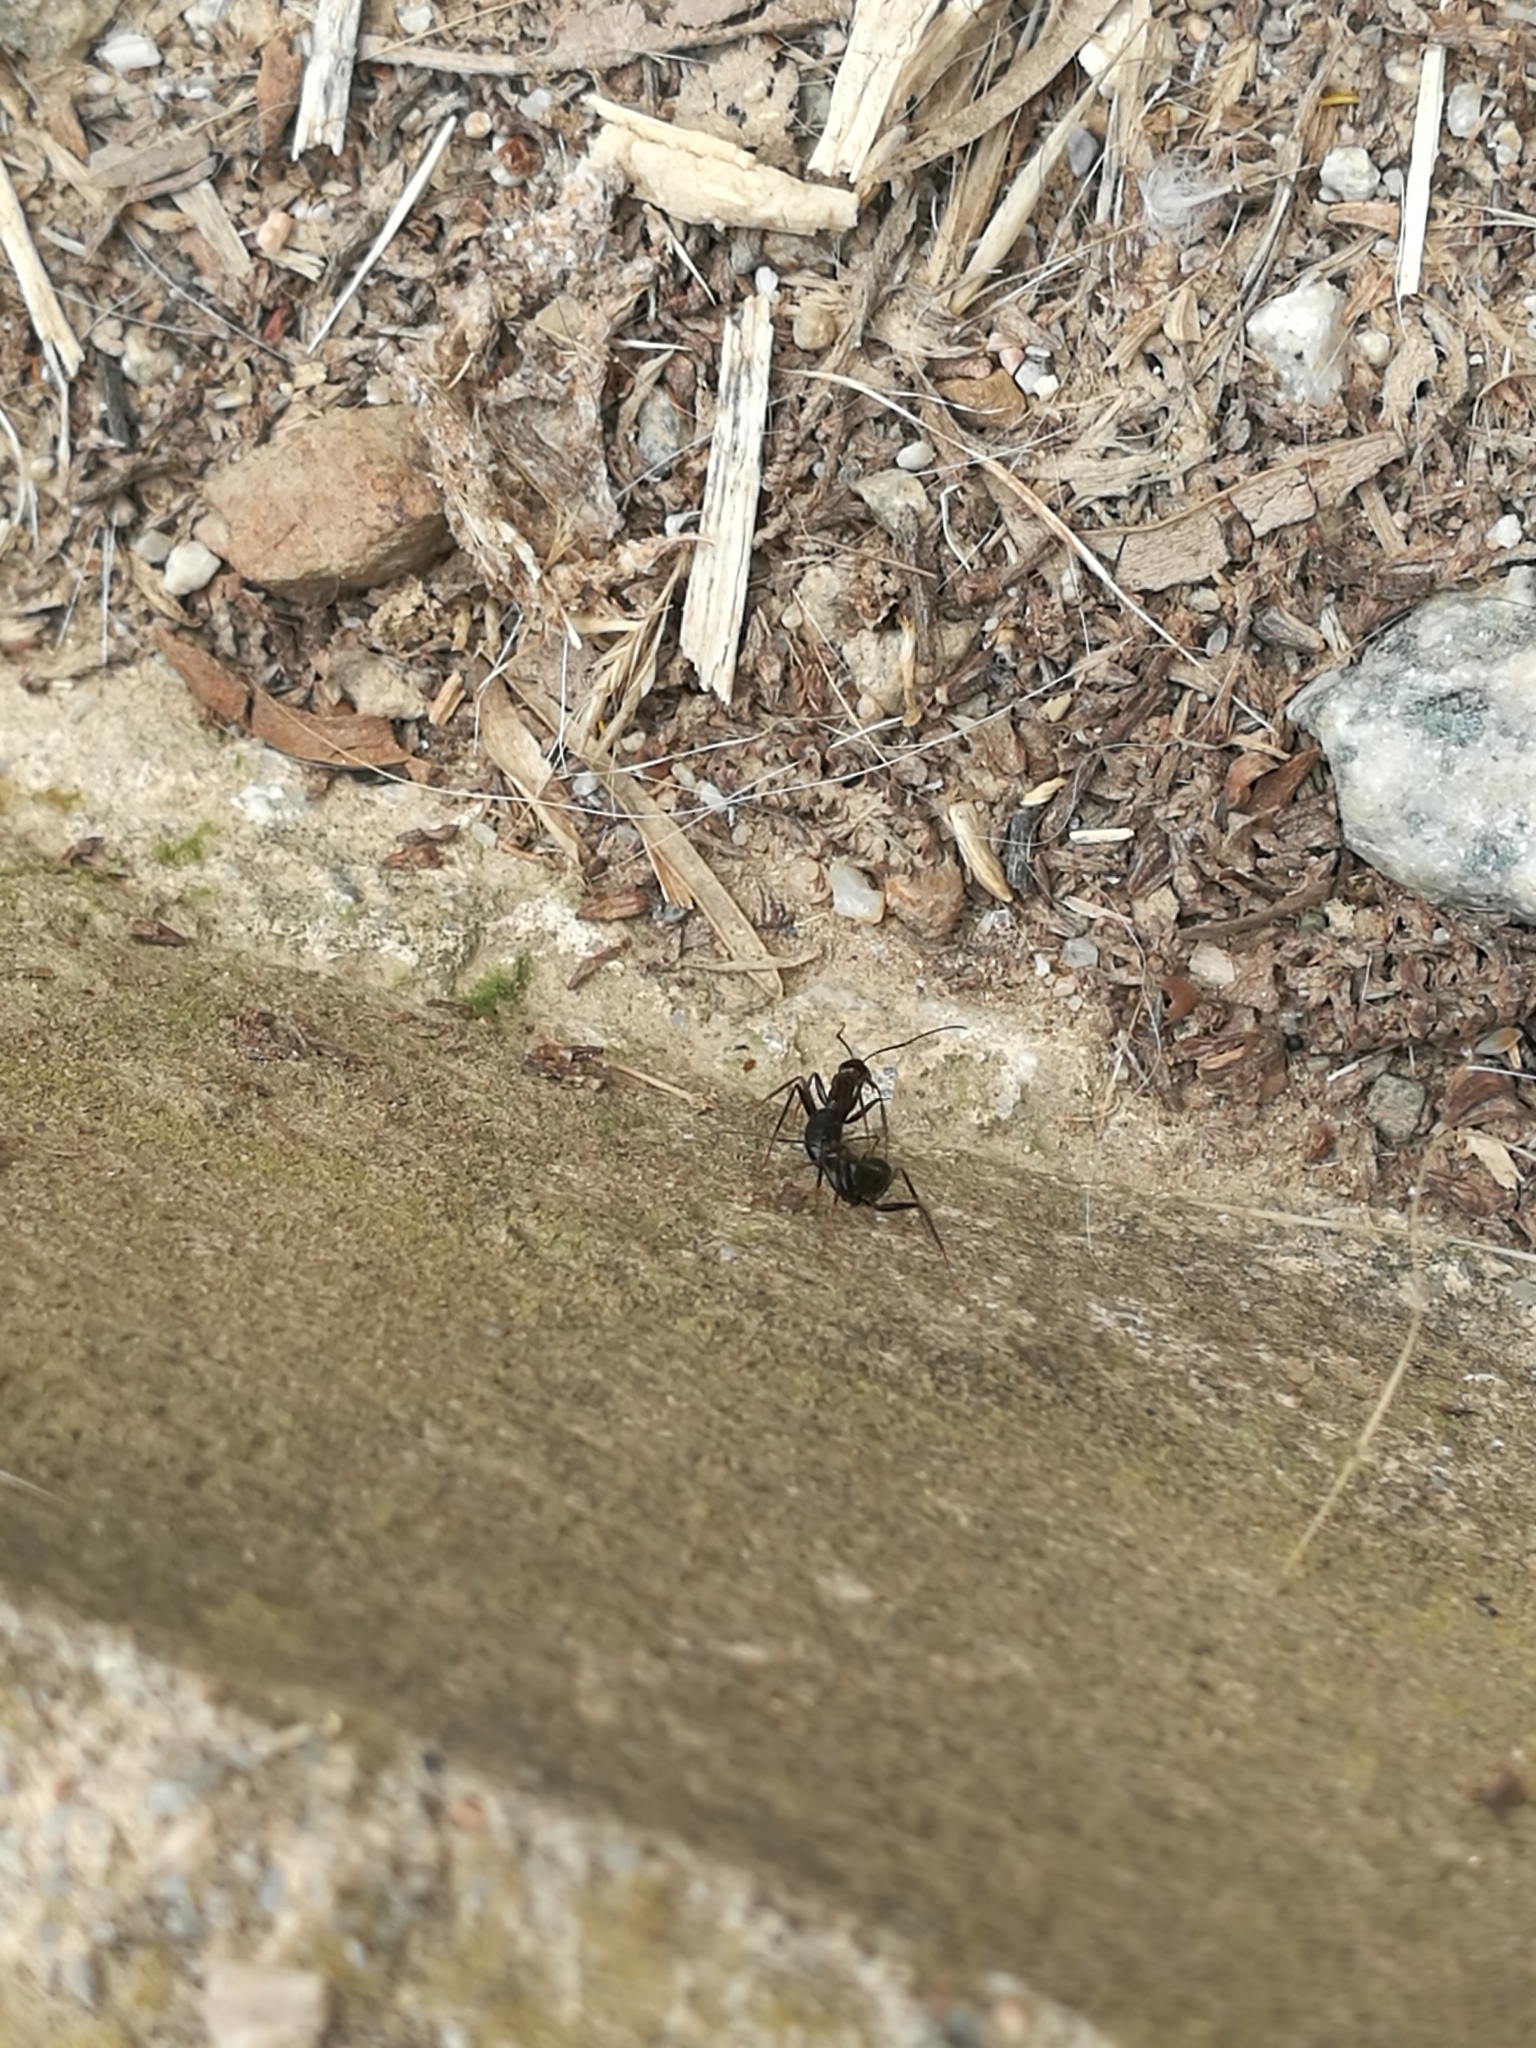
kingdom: Animalia
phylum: Arthropoda
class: Insecta
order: Hymenoptera
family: Formicidae
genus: Camponotus
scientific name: Camponotus sylvaticus
